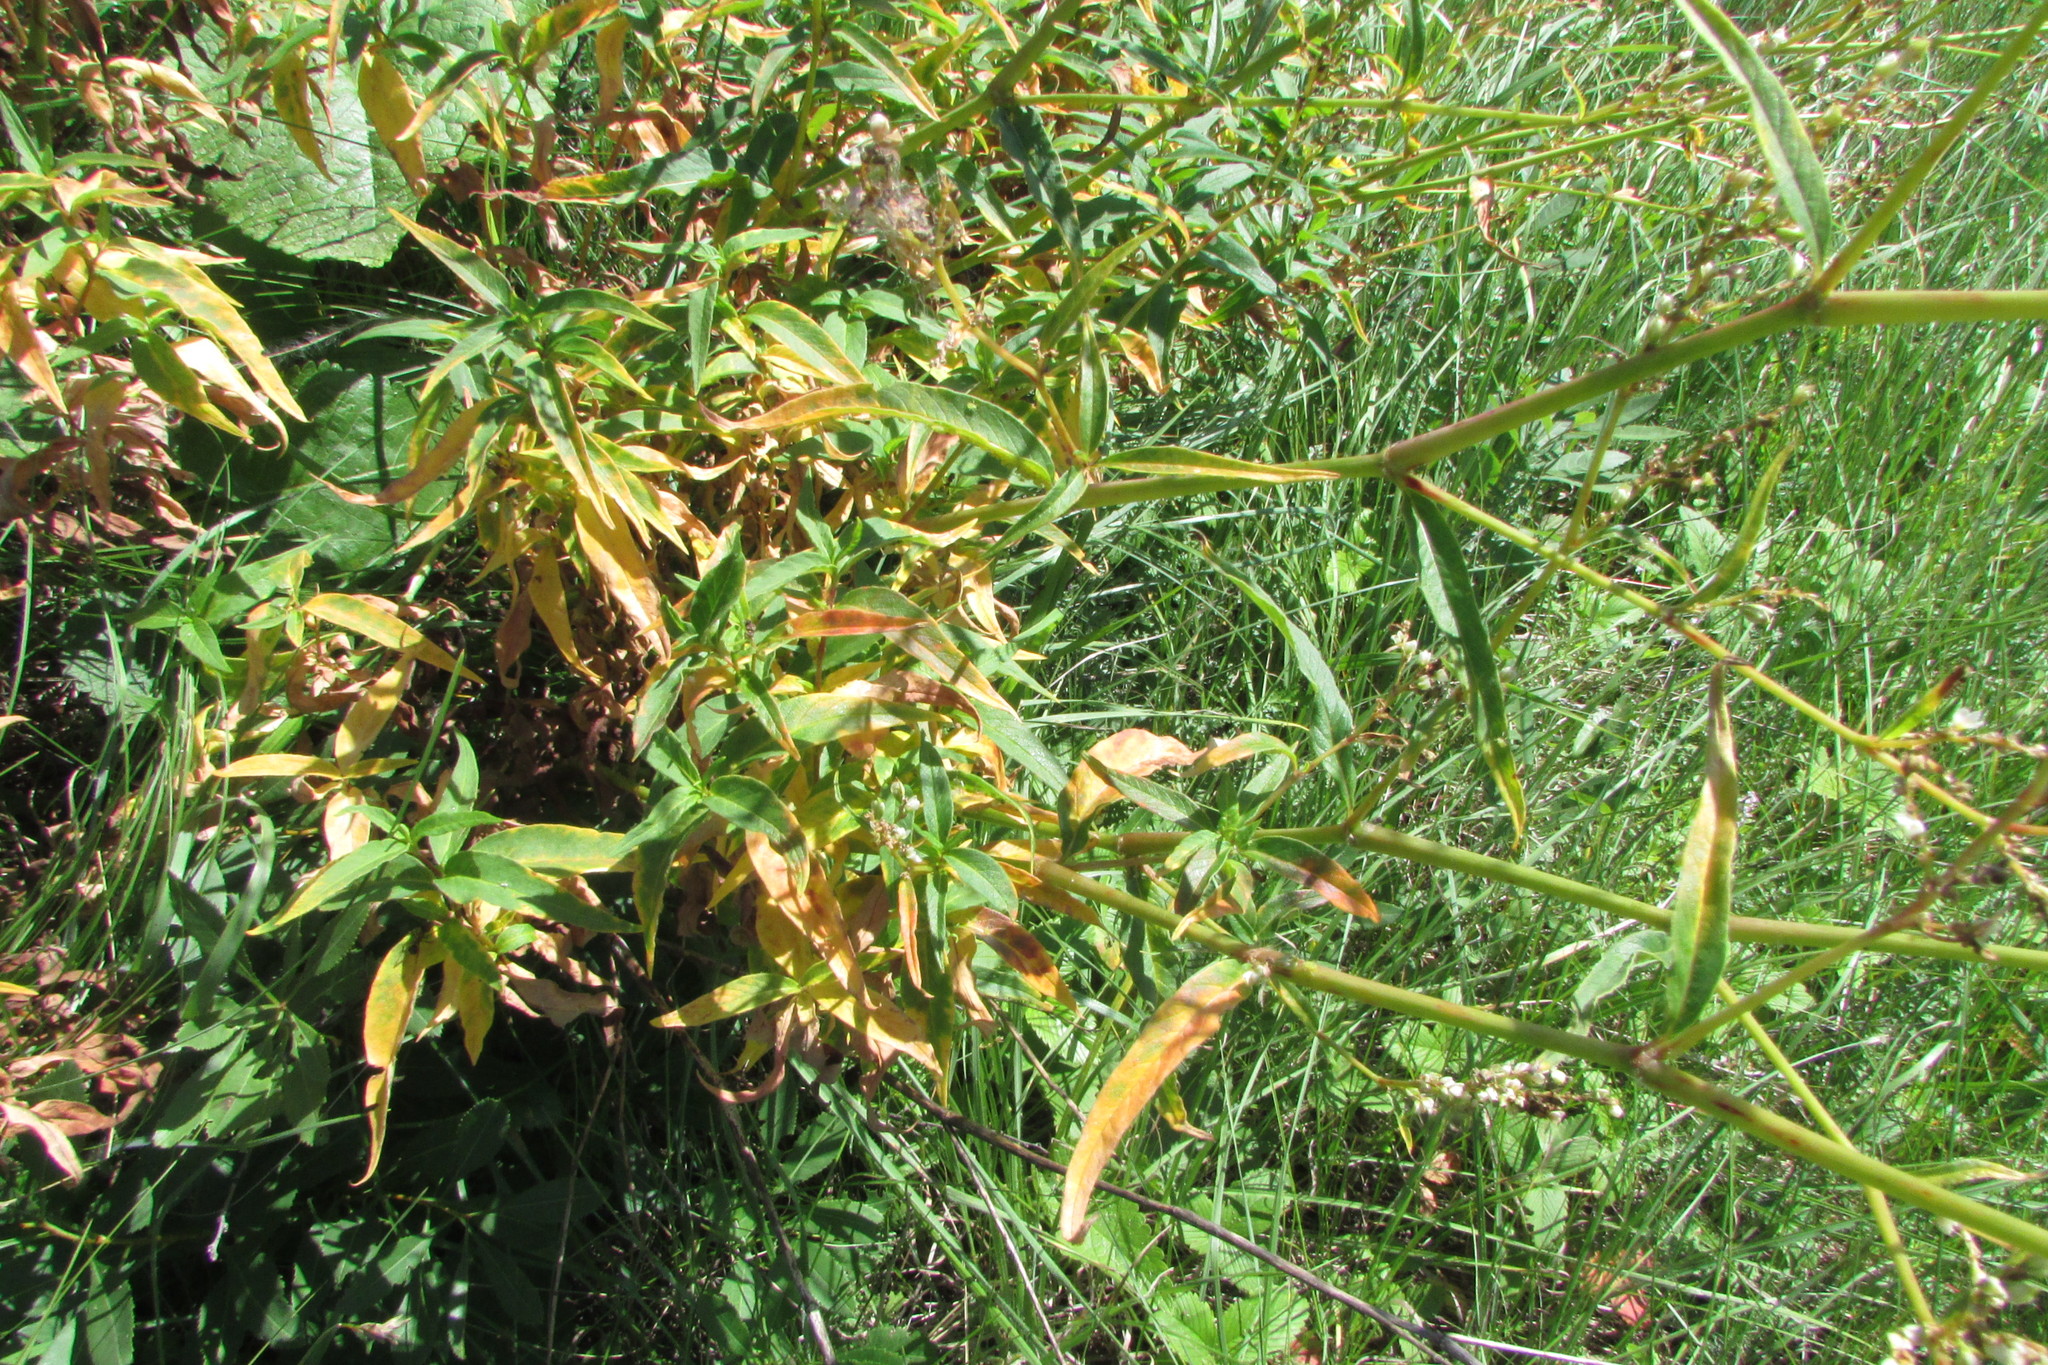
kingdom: Plantae
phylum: Tracheophyta
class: Magnoliopsida
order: Caryophyllales
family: Polygonaceae
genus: Koenigia
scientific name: Koenigia alpina
